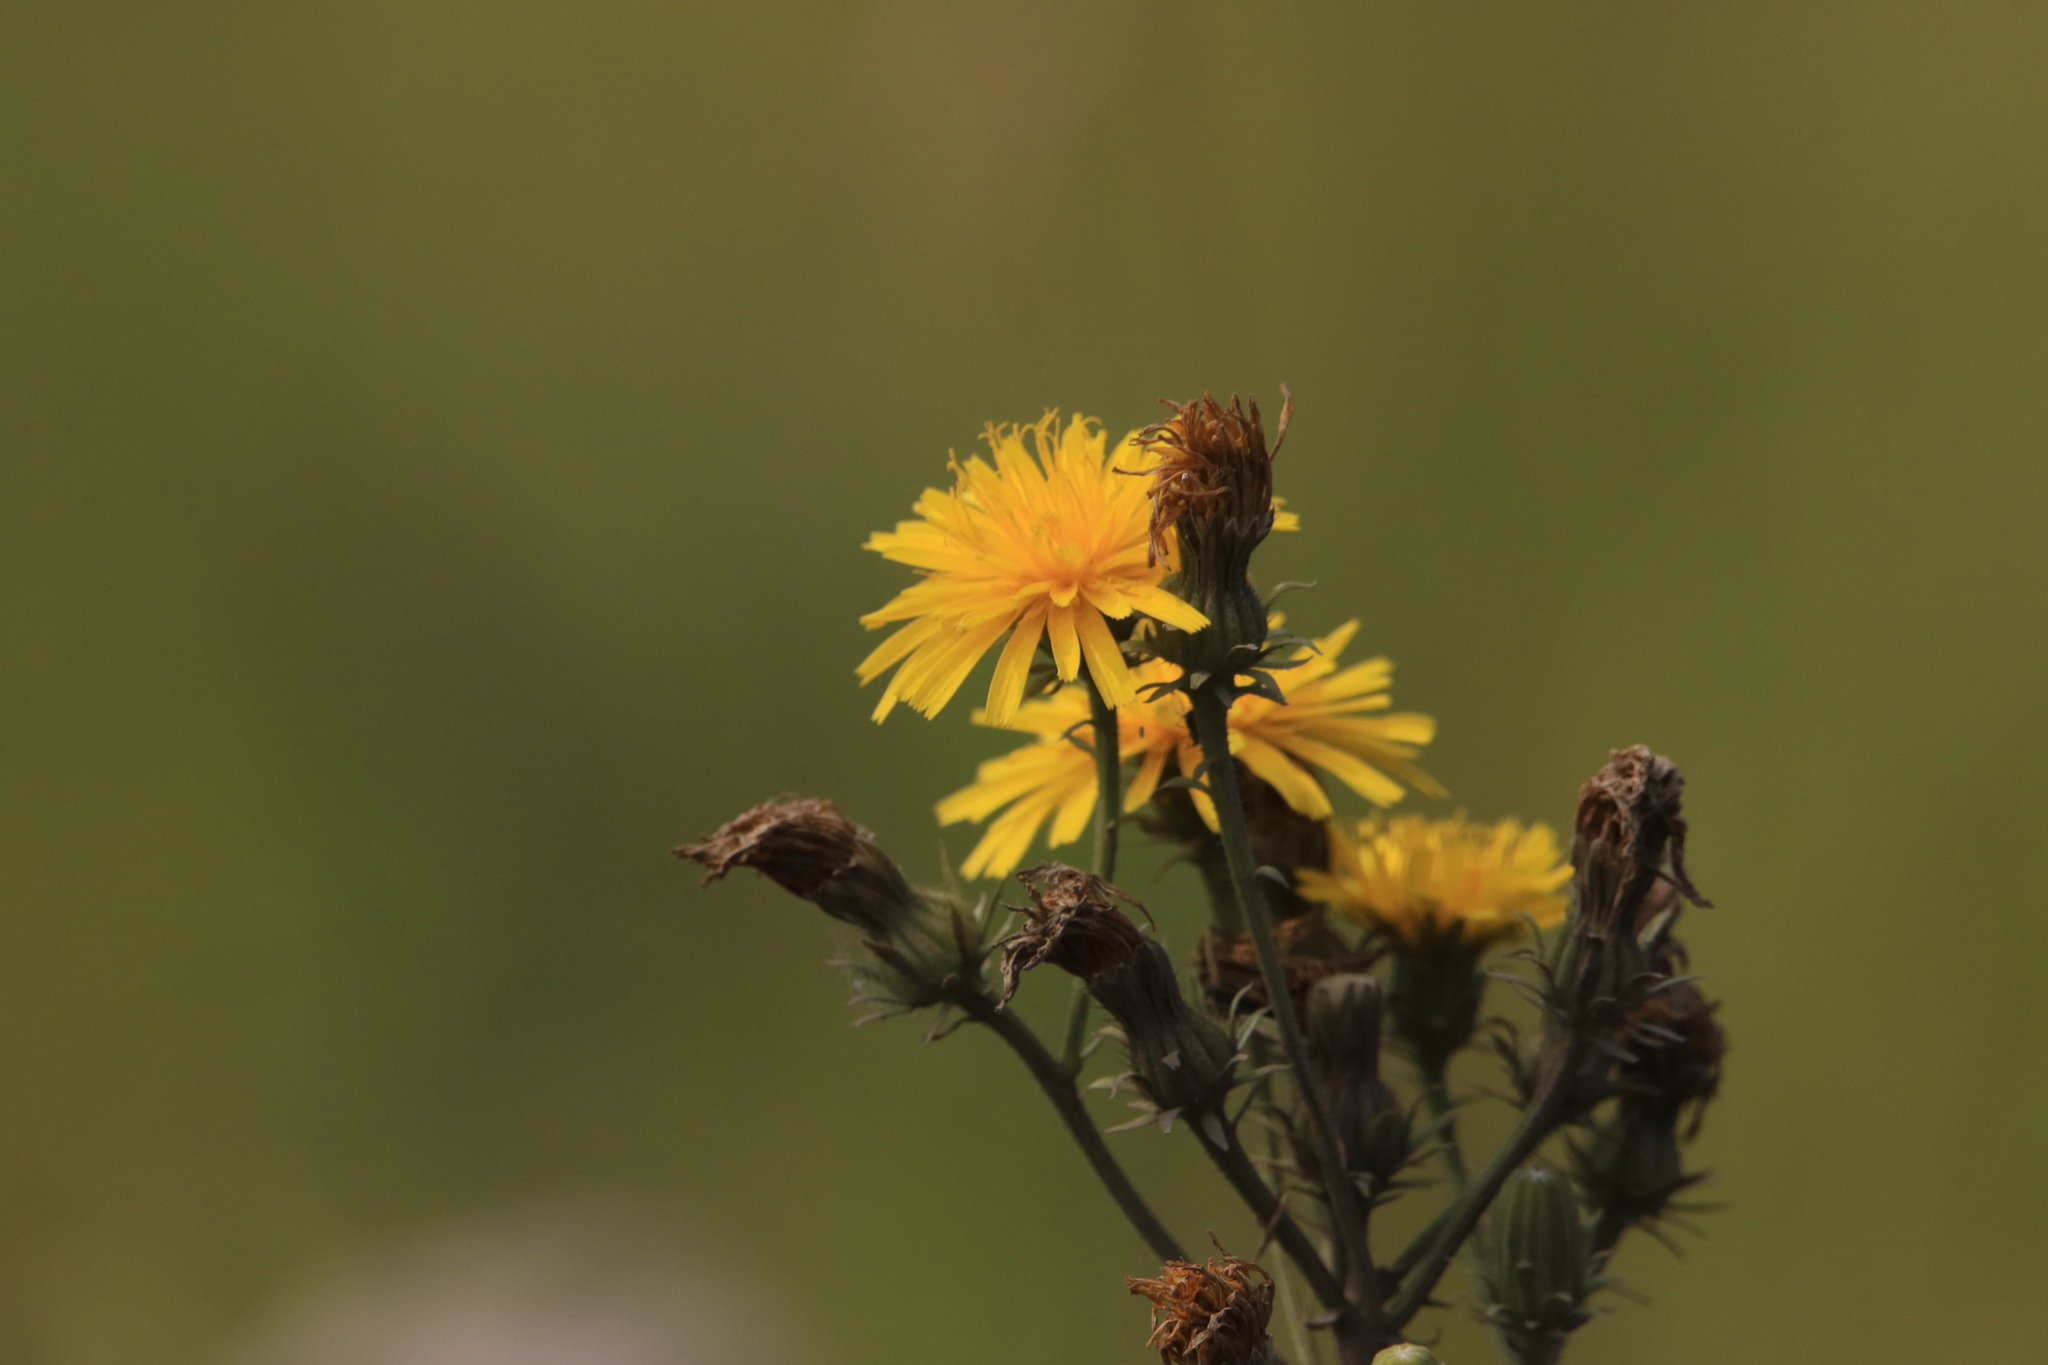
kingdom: Plantae
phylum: Tracheophyta
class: Magnoliopsida
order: Asterales
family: Asteraceae
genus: Picris
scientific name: Picris hieracioides
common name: Hawkweed oxtongue
